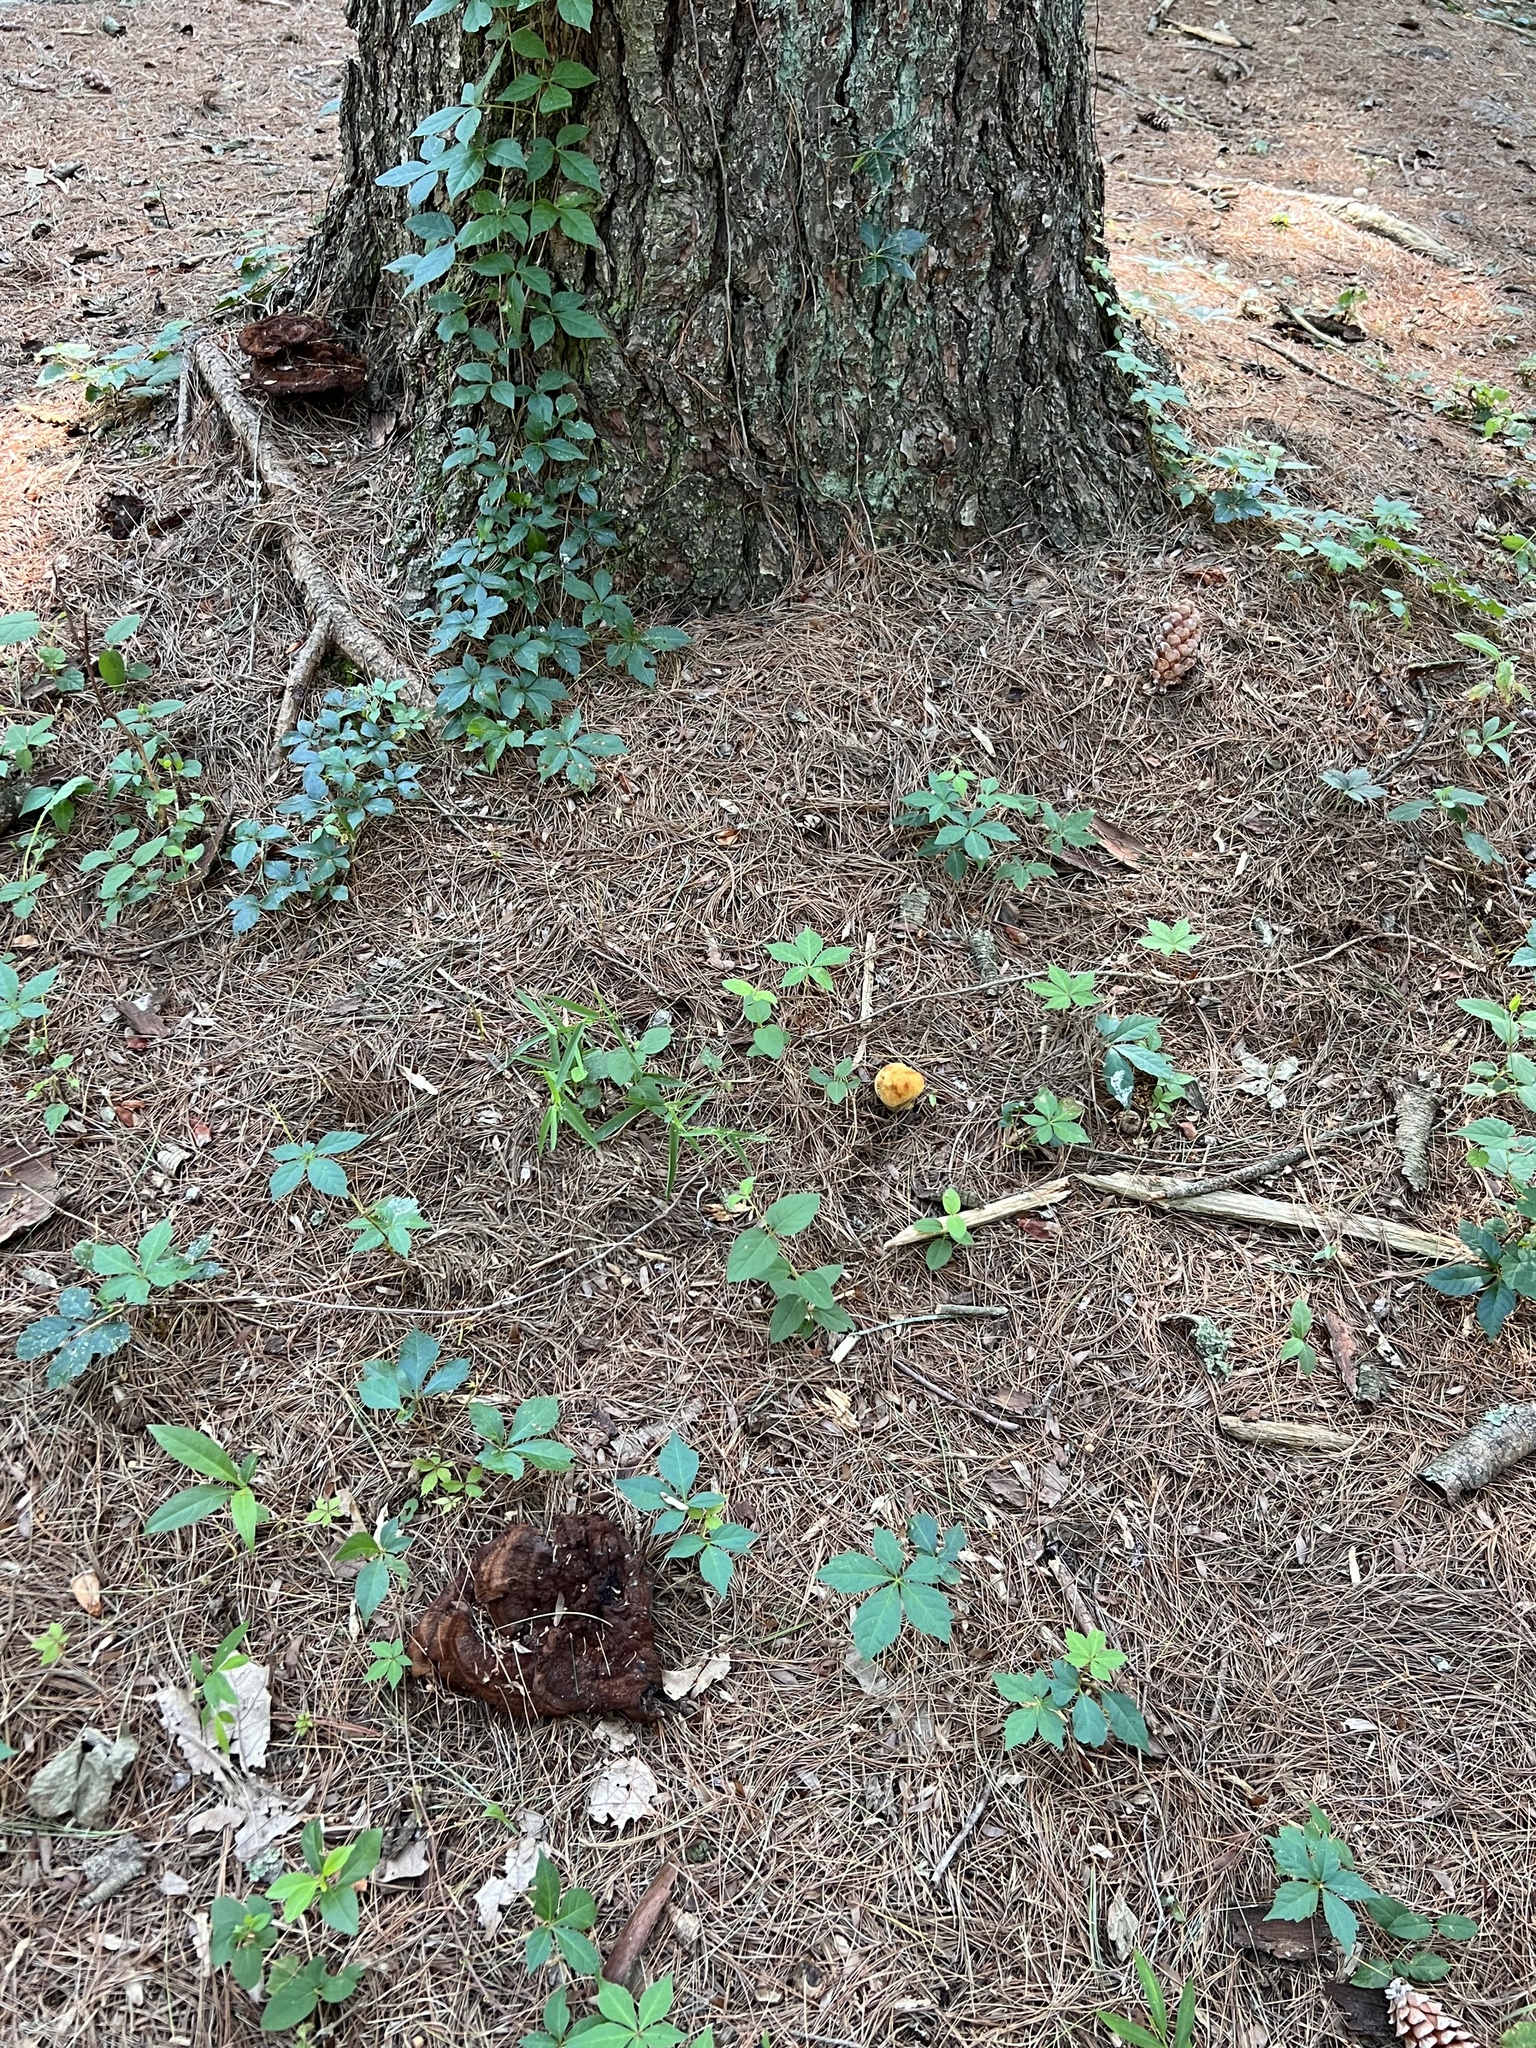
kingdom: Fungi
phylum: Basidiomycota
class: Agaricomycetes
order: Polyporales
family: Laetiporaceae
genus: Phaeolus
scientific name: Phaeolus schweinitzii
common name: Dyer's mazegill
